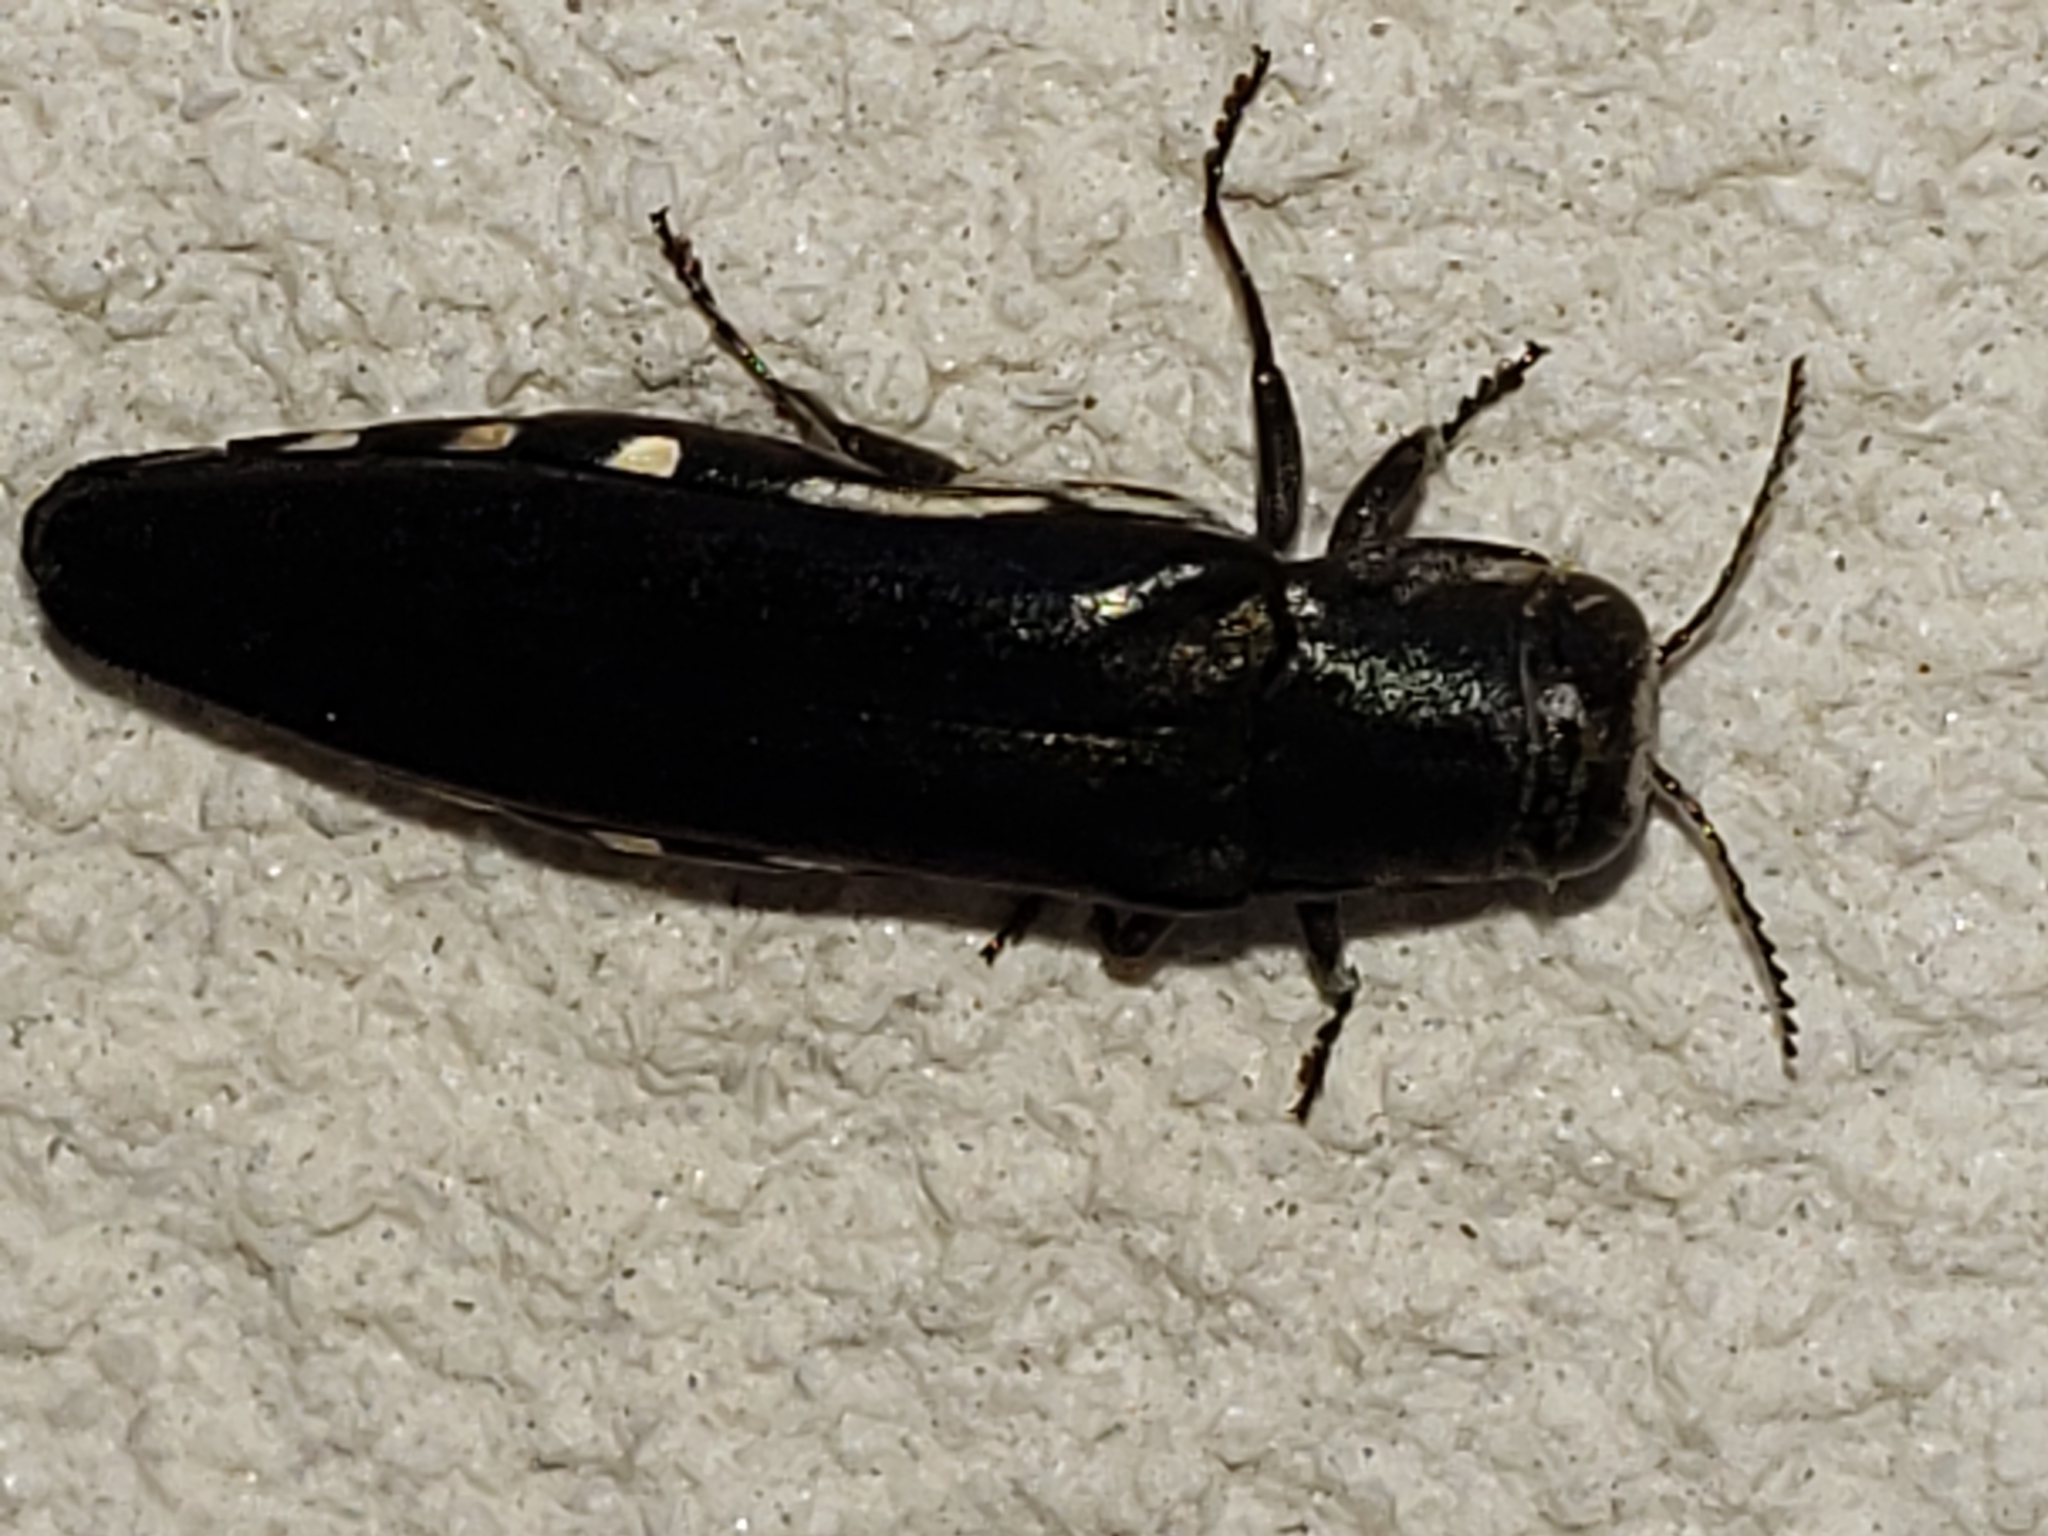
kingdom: Animalia
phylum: Arthropoda
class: Insecta
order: Coleoptera
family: Buprestidae
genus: Agrilus
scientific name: Agrilus difficilis
